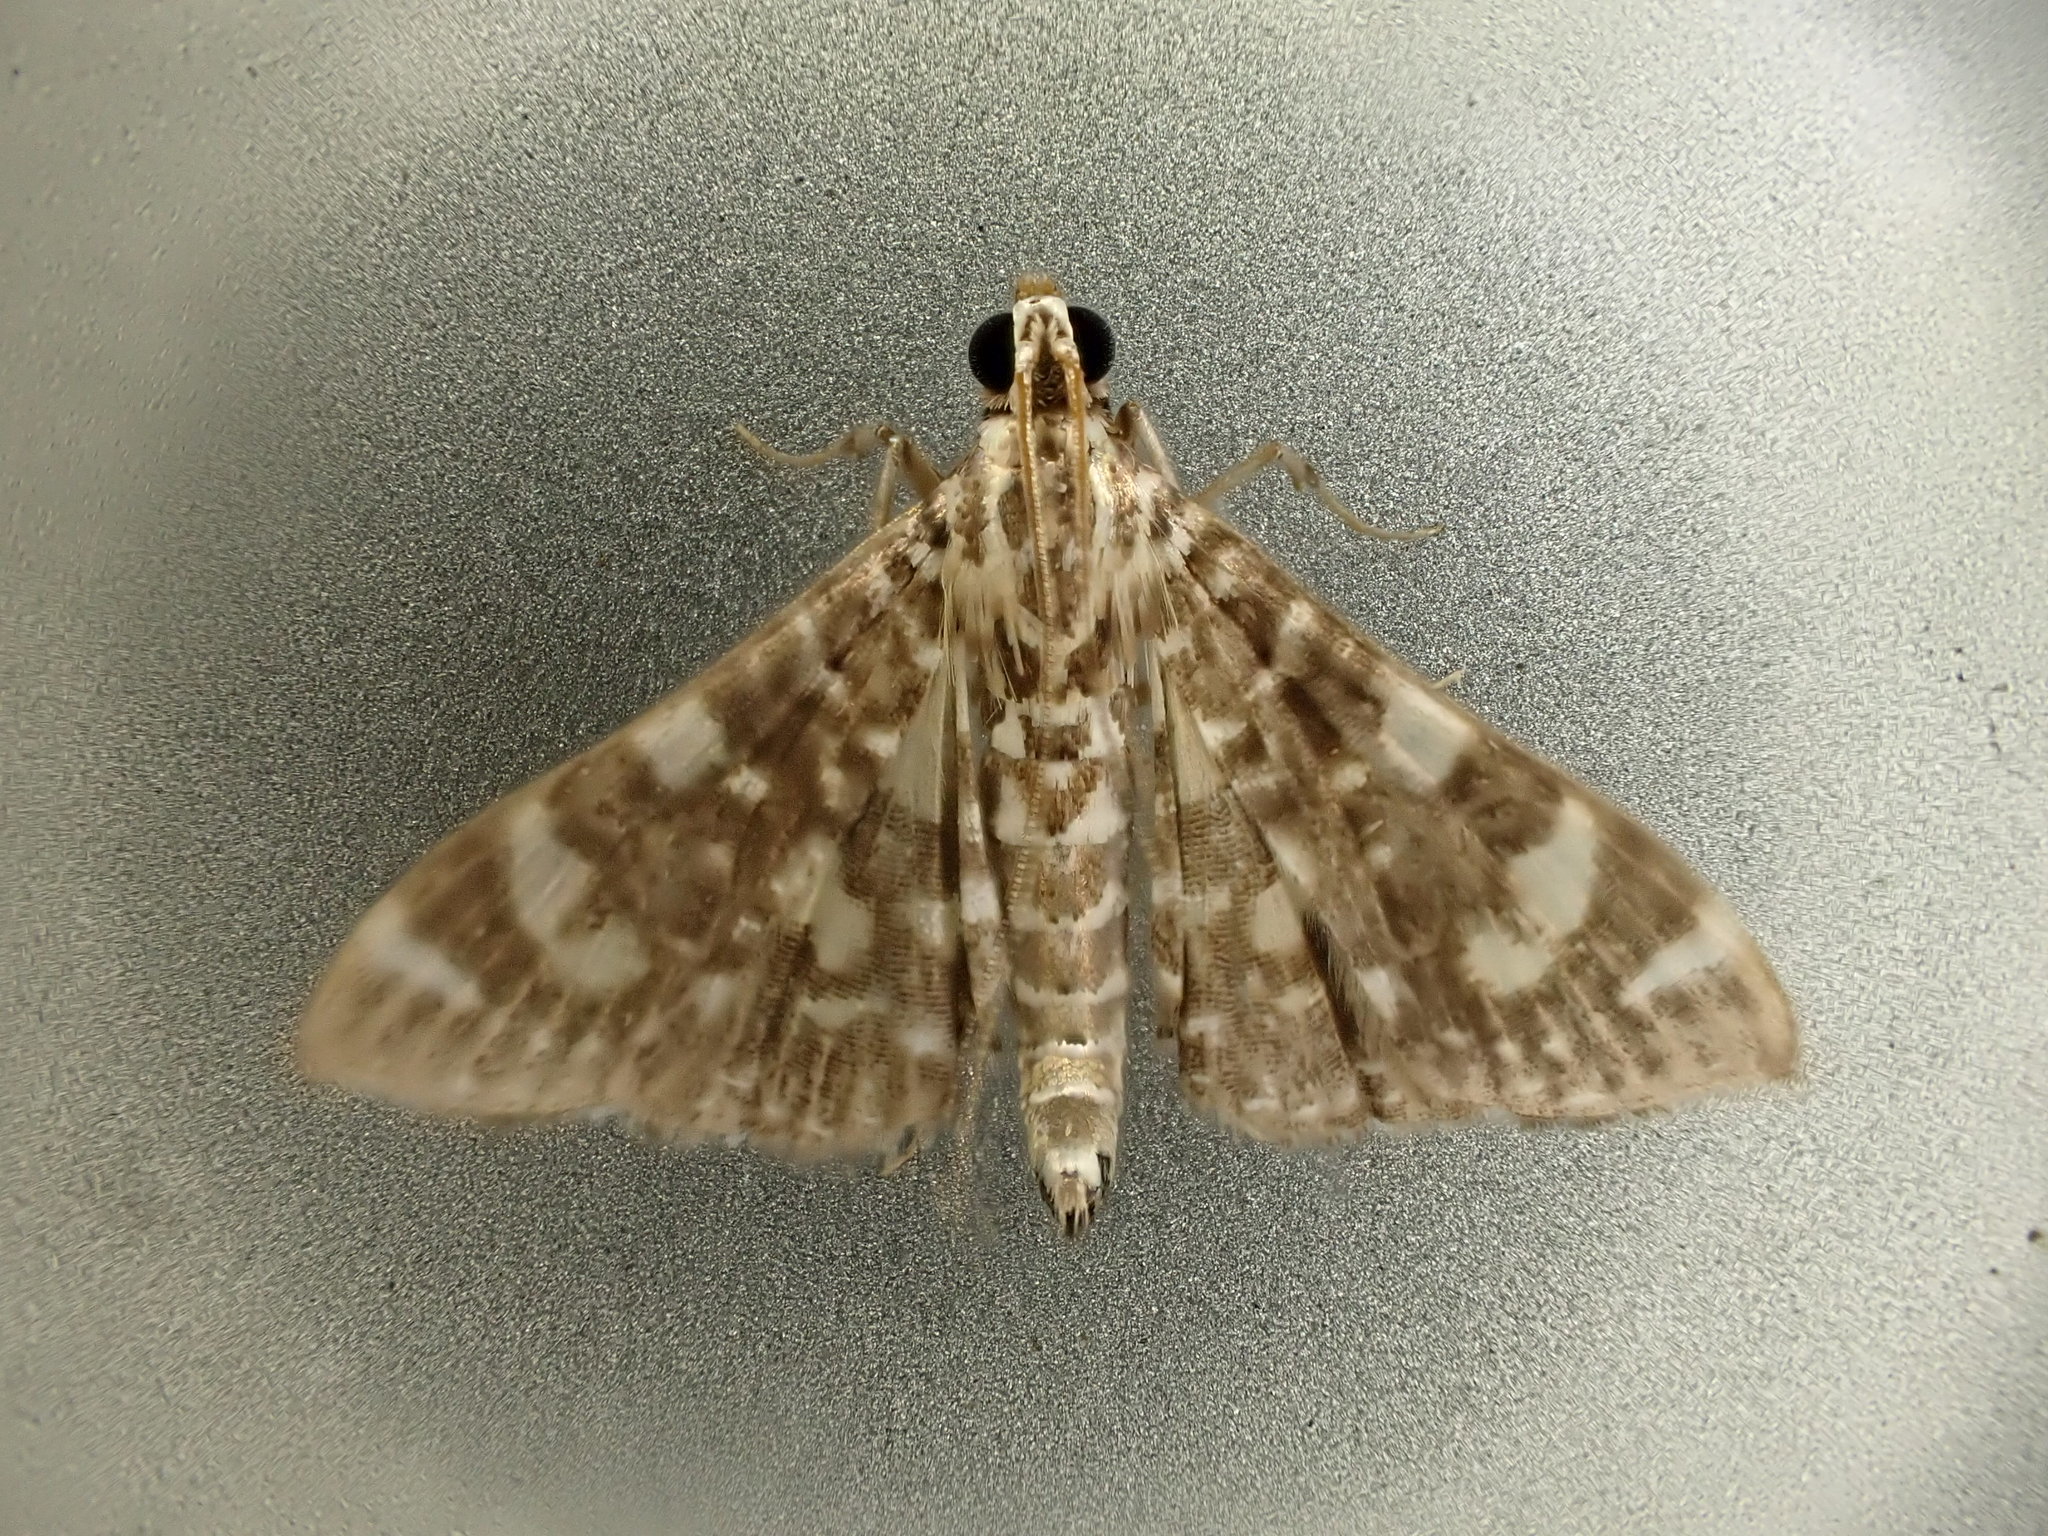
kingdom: Animalia
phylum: Arthropoda
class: Insecta
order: Lepidoptera
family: Crambidae
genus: Glyphodes
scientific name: Glyphodes onychinalis
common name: Swan plant moth
